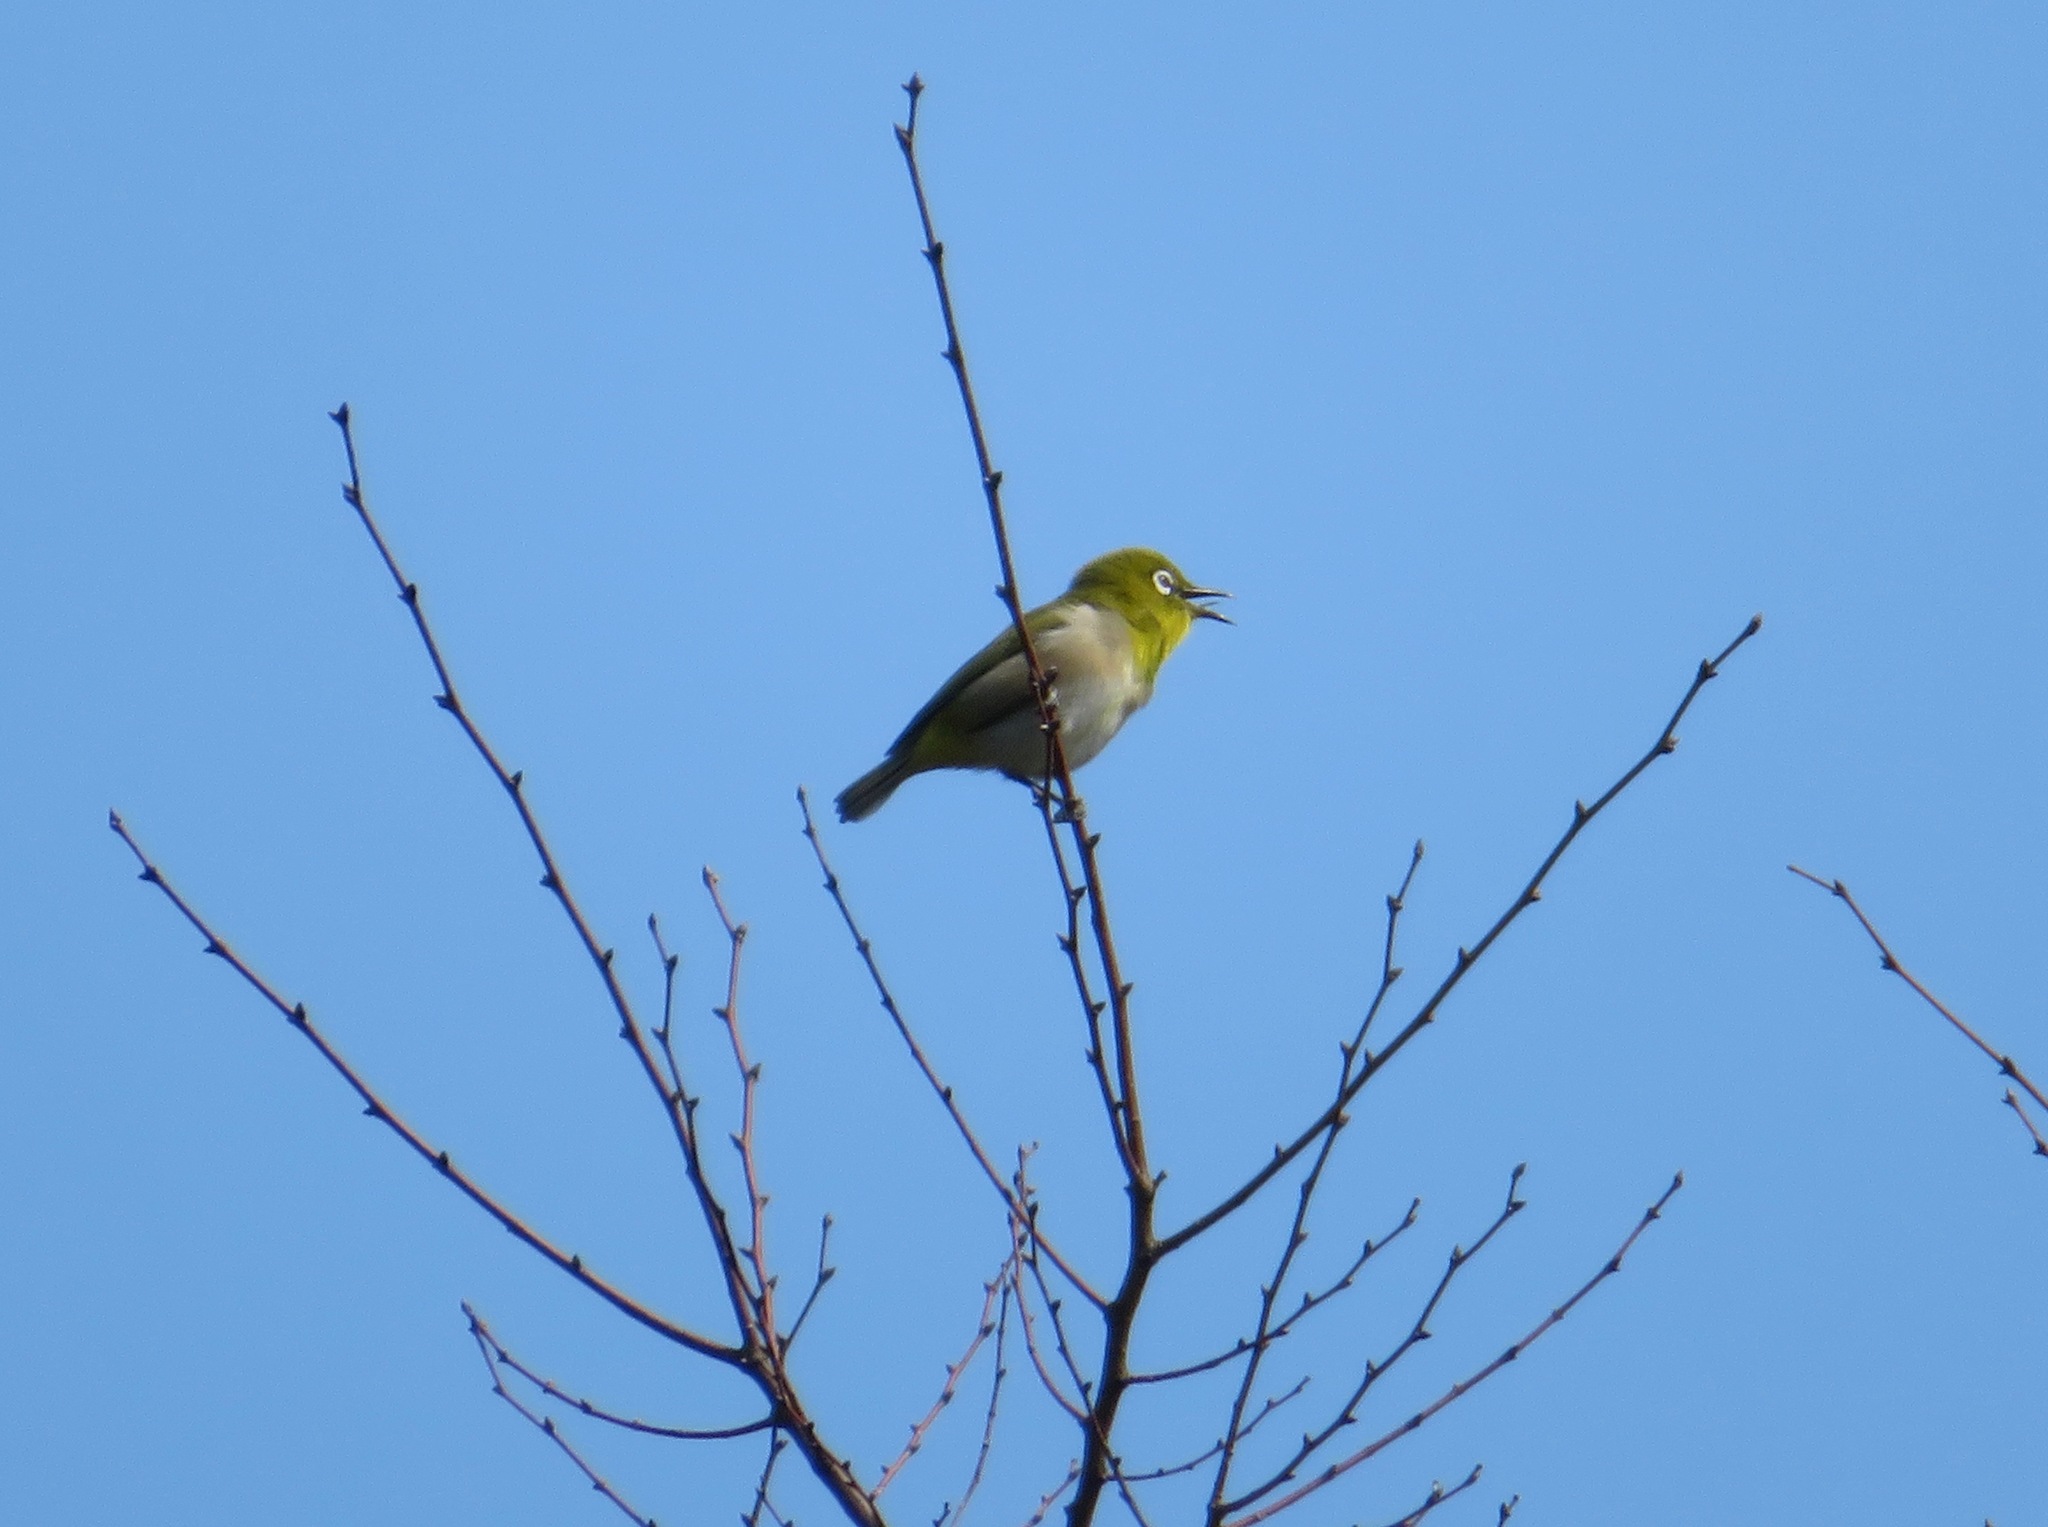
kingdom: Animalia
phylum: Chordata
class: Aves
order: Passeriformes
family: Zosteropidae
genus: Zosterops
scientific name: Zosterops japonicus
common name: Japanese white-eye
